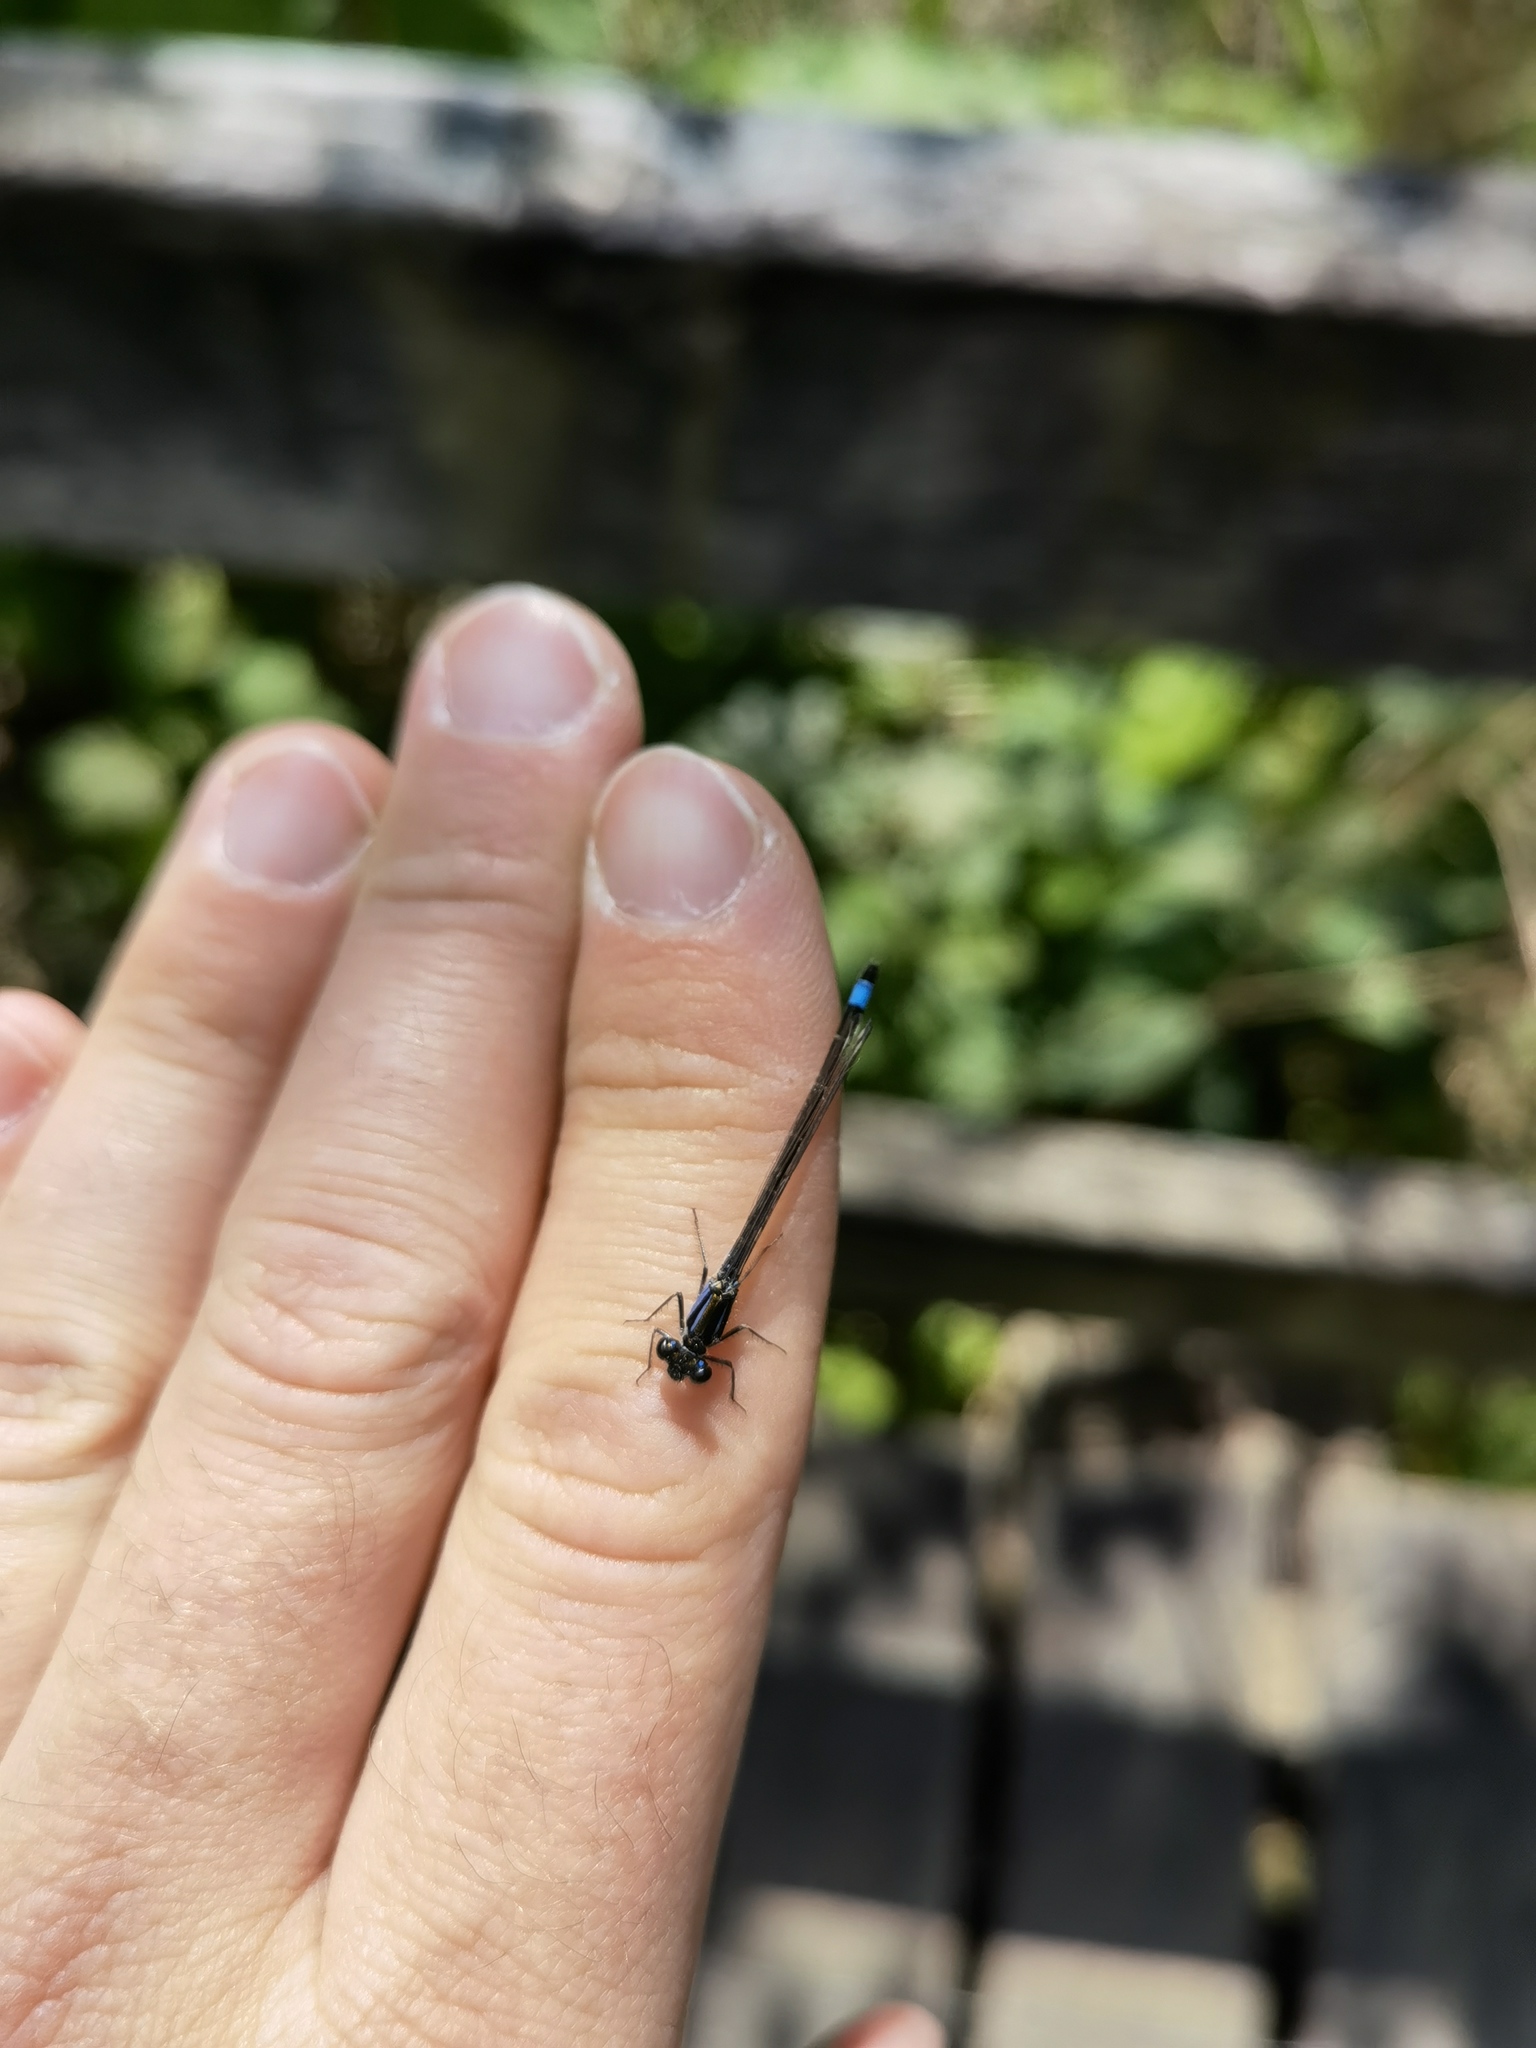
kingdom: Animalia
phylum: Arthropoda
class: Insecta
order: Odonata
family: Coenagrionidae
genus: Ischnura
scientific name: Ischnura elegans
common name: Blue-tailed damselfly
